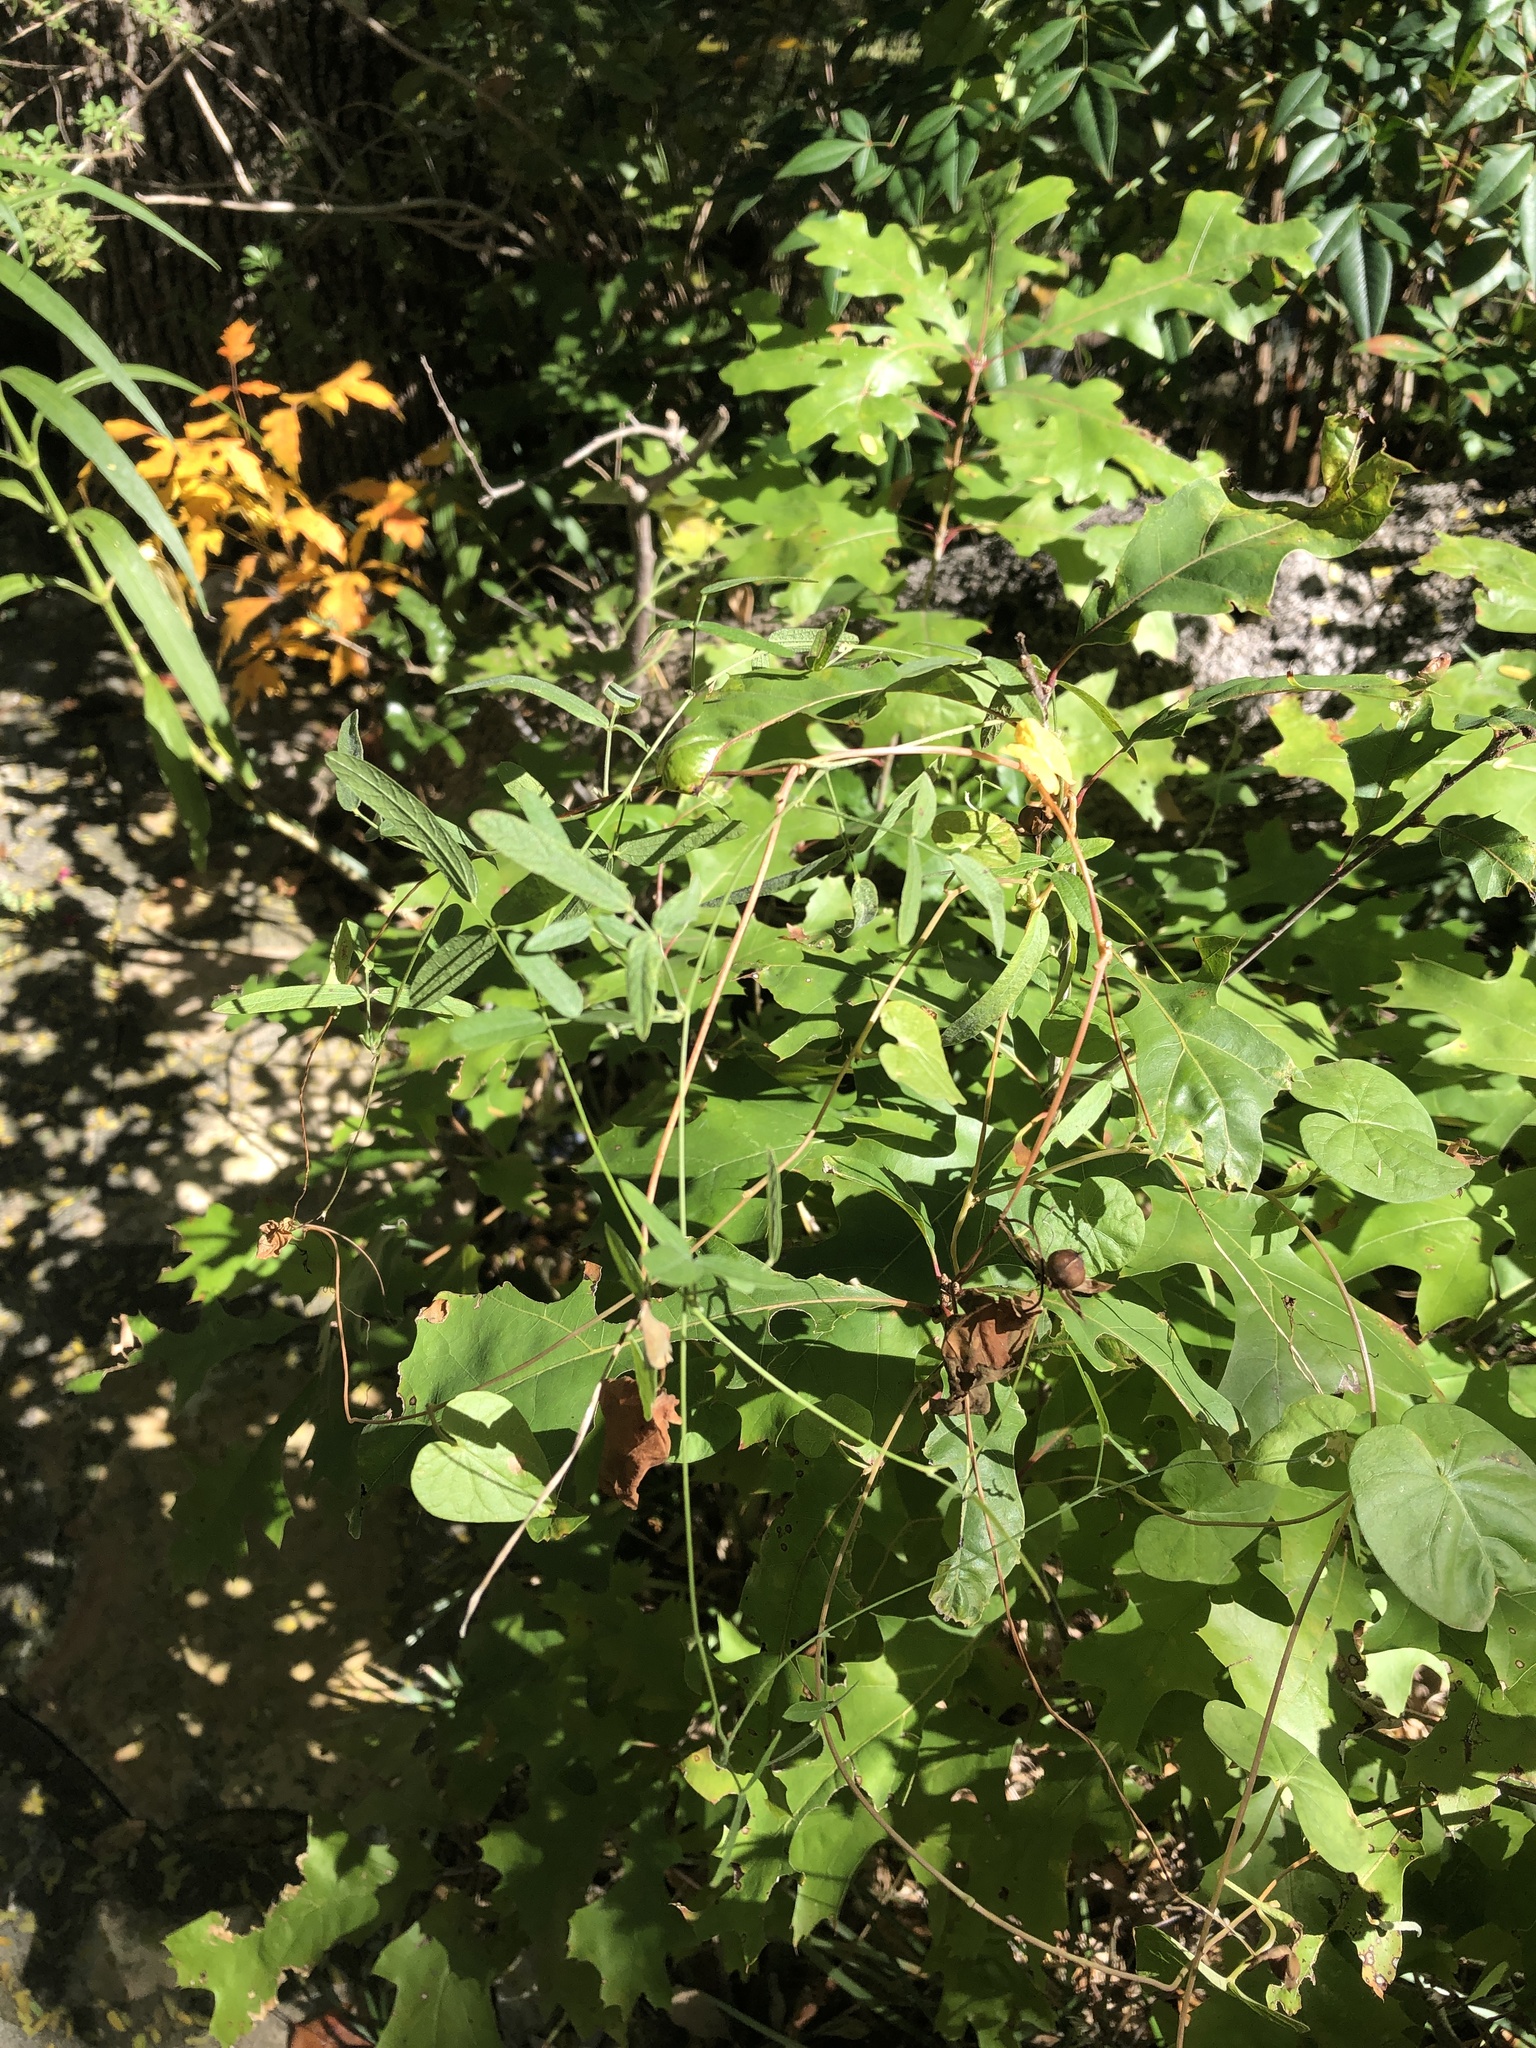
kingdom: Plantae
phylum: Tracheophyta
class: Magnoliopsida
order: Fabales
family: Fabaceae
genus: Rhynchosia
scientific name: Rhynchosia senna
